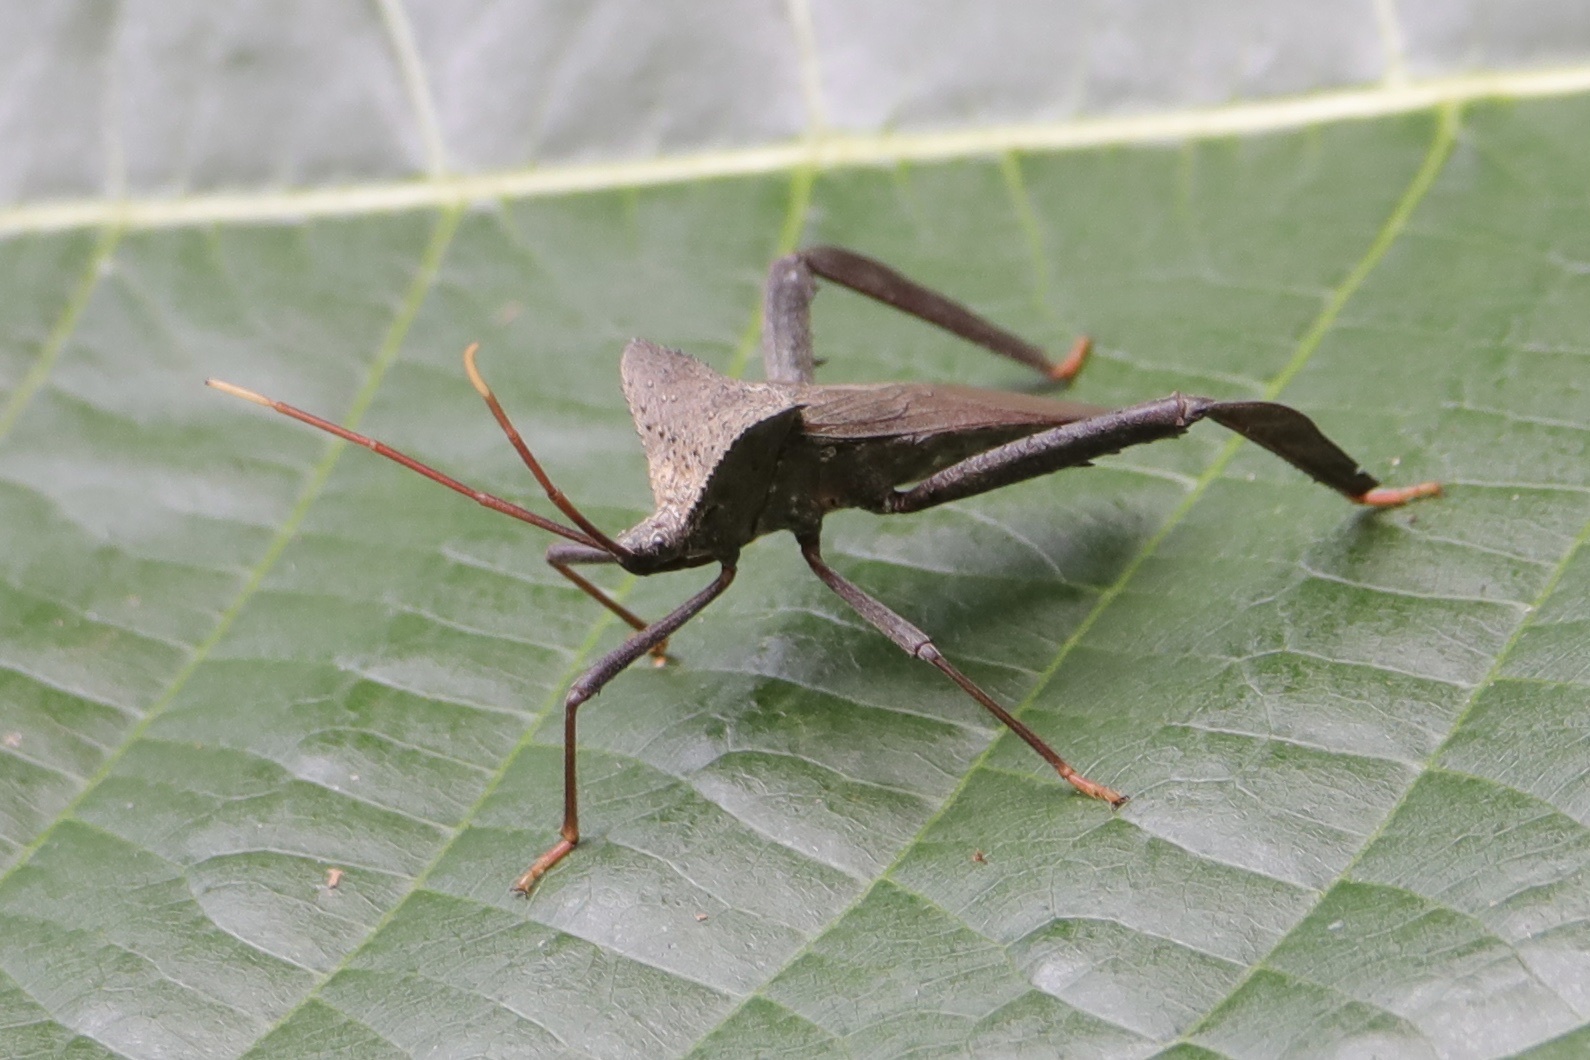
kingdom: Animalia
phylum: Arthropoda
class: Insecta
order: Hemiptera
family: Coreidae
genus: Acanthocephala
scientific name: Acanthocephala alata
